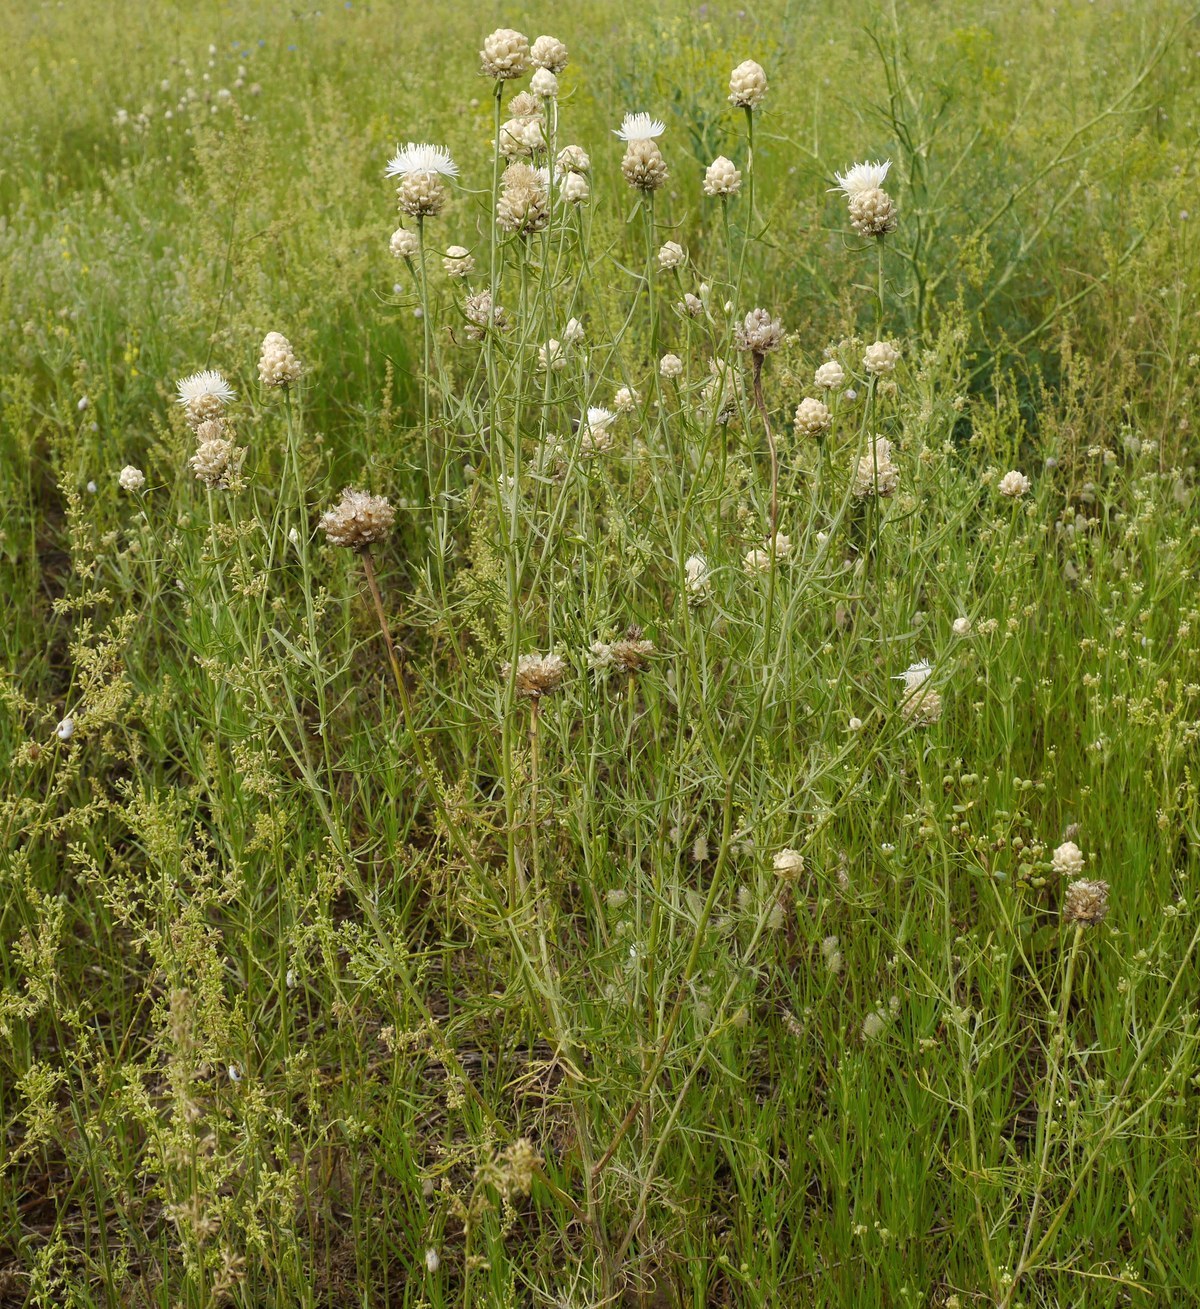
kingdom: Plantae
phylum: Tracheophyta
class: Magnoliopsida
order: Asterales
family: Asteraceae
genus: Centaurea
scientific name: Centaurea splendens
